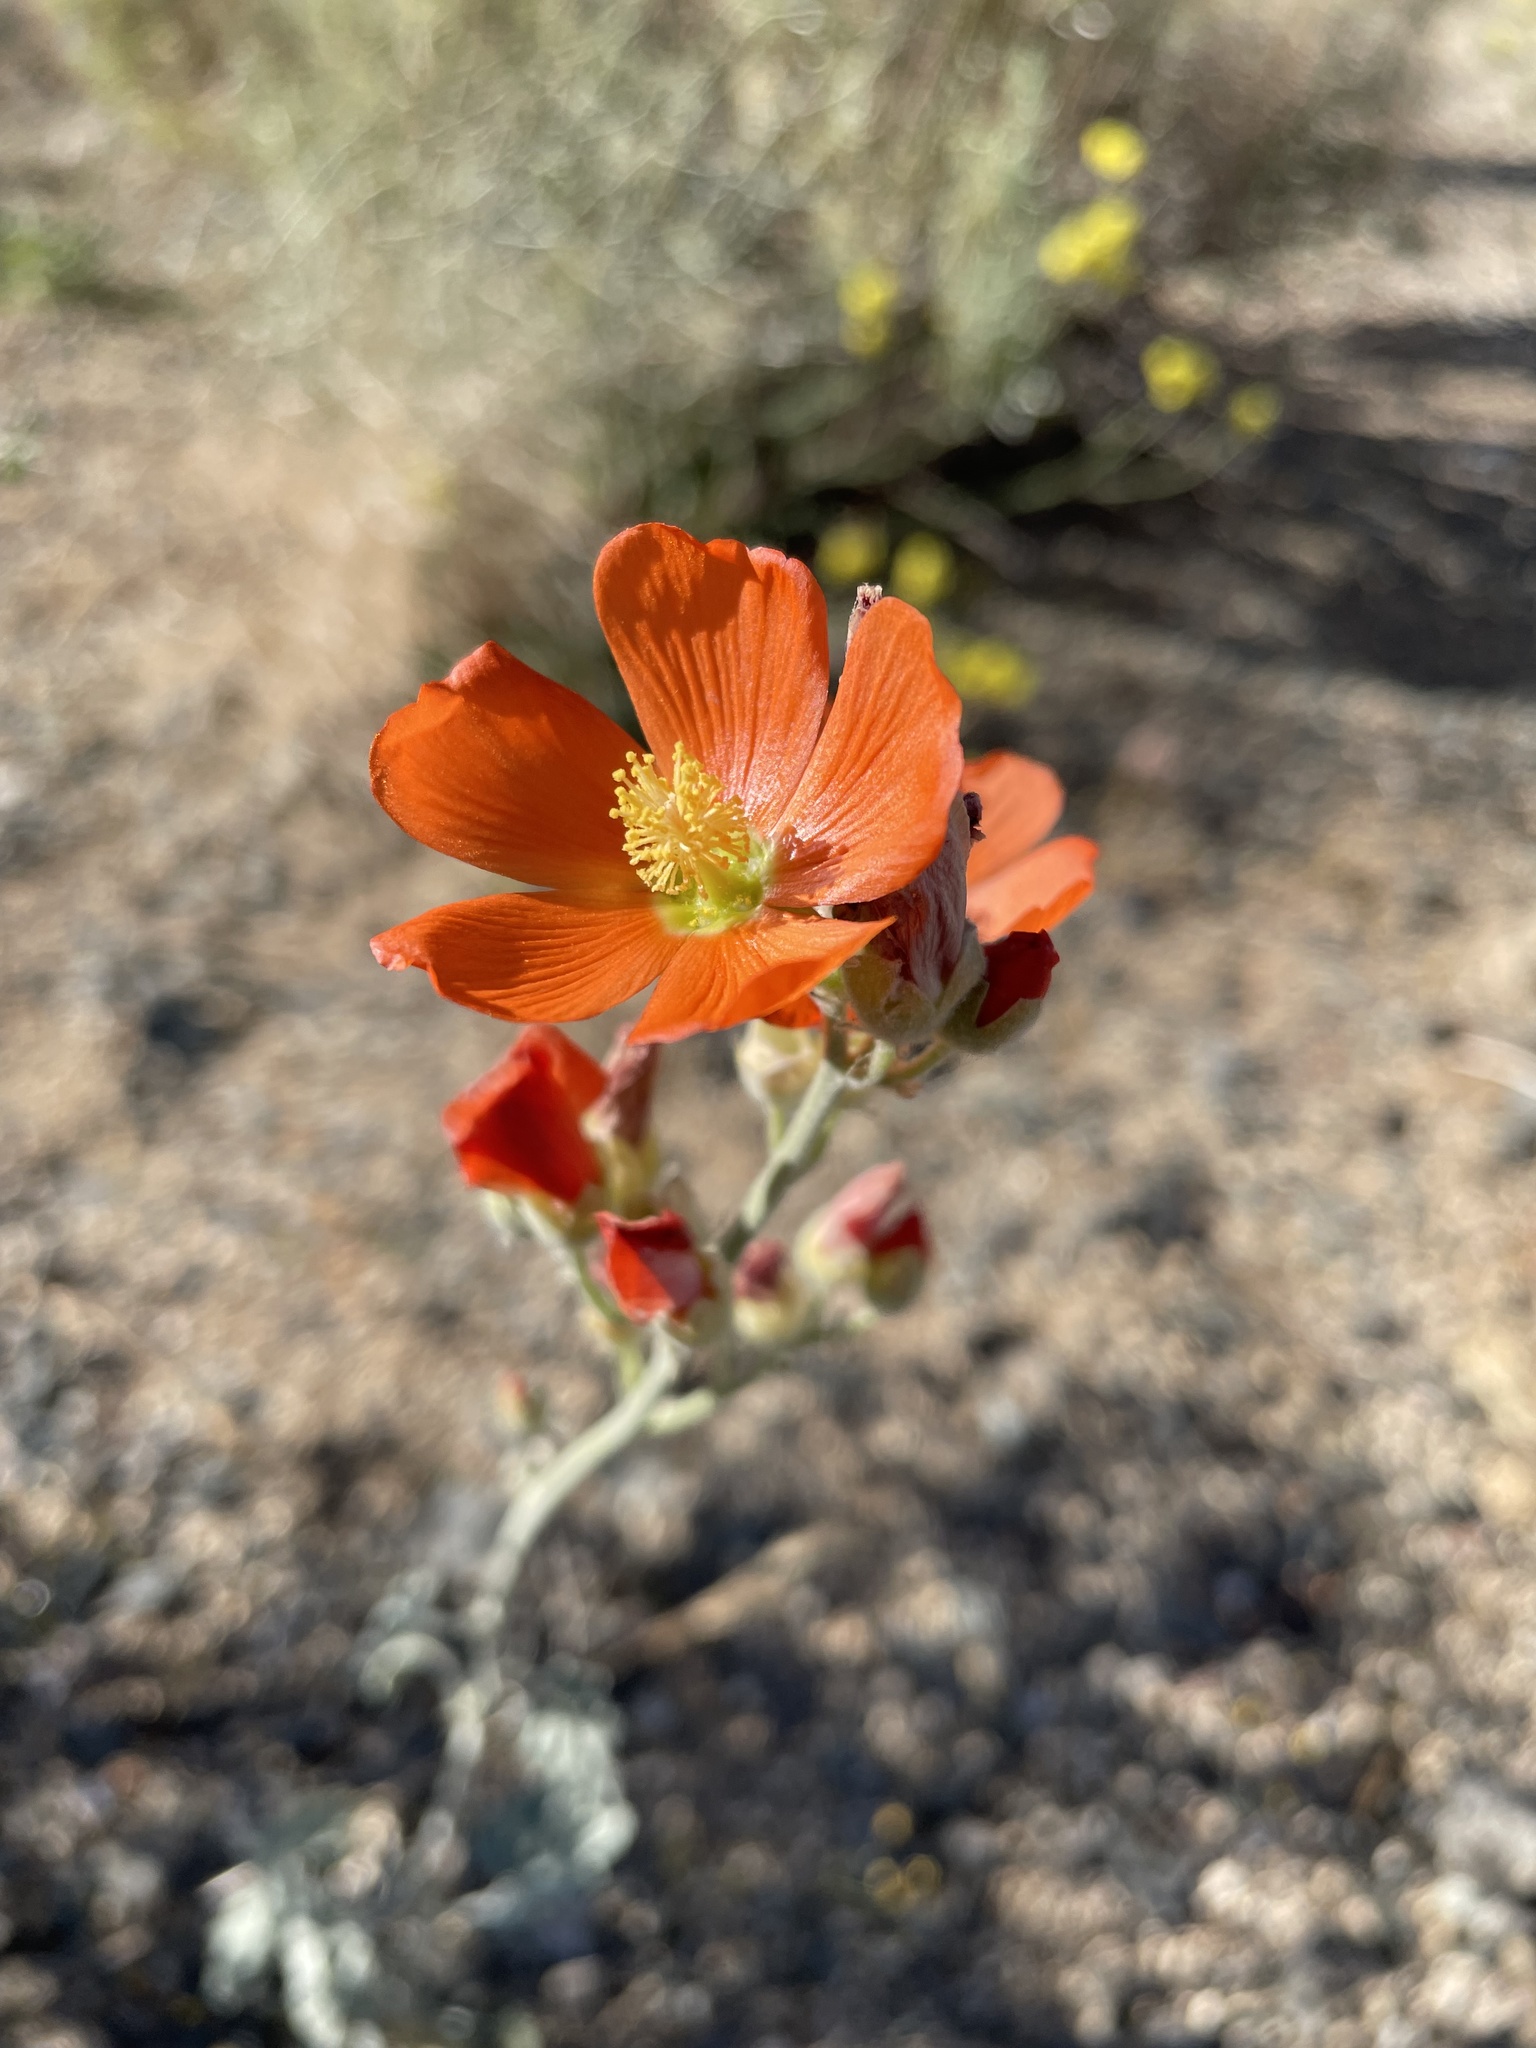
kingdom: Plantae
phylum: Tracheophyta
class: Magnoliopsida
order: Malvales
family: Malvaceae
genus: Sphaeralcea
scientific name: Sphaeralcea ambigua
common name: Apricot globe-mallow
